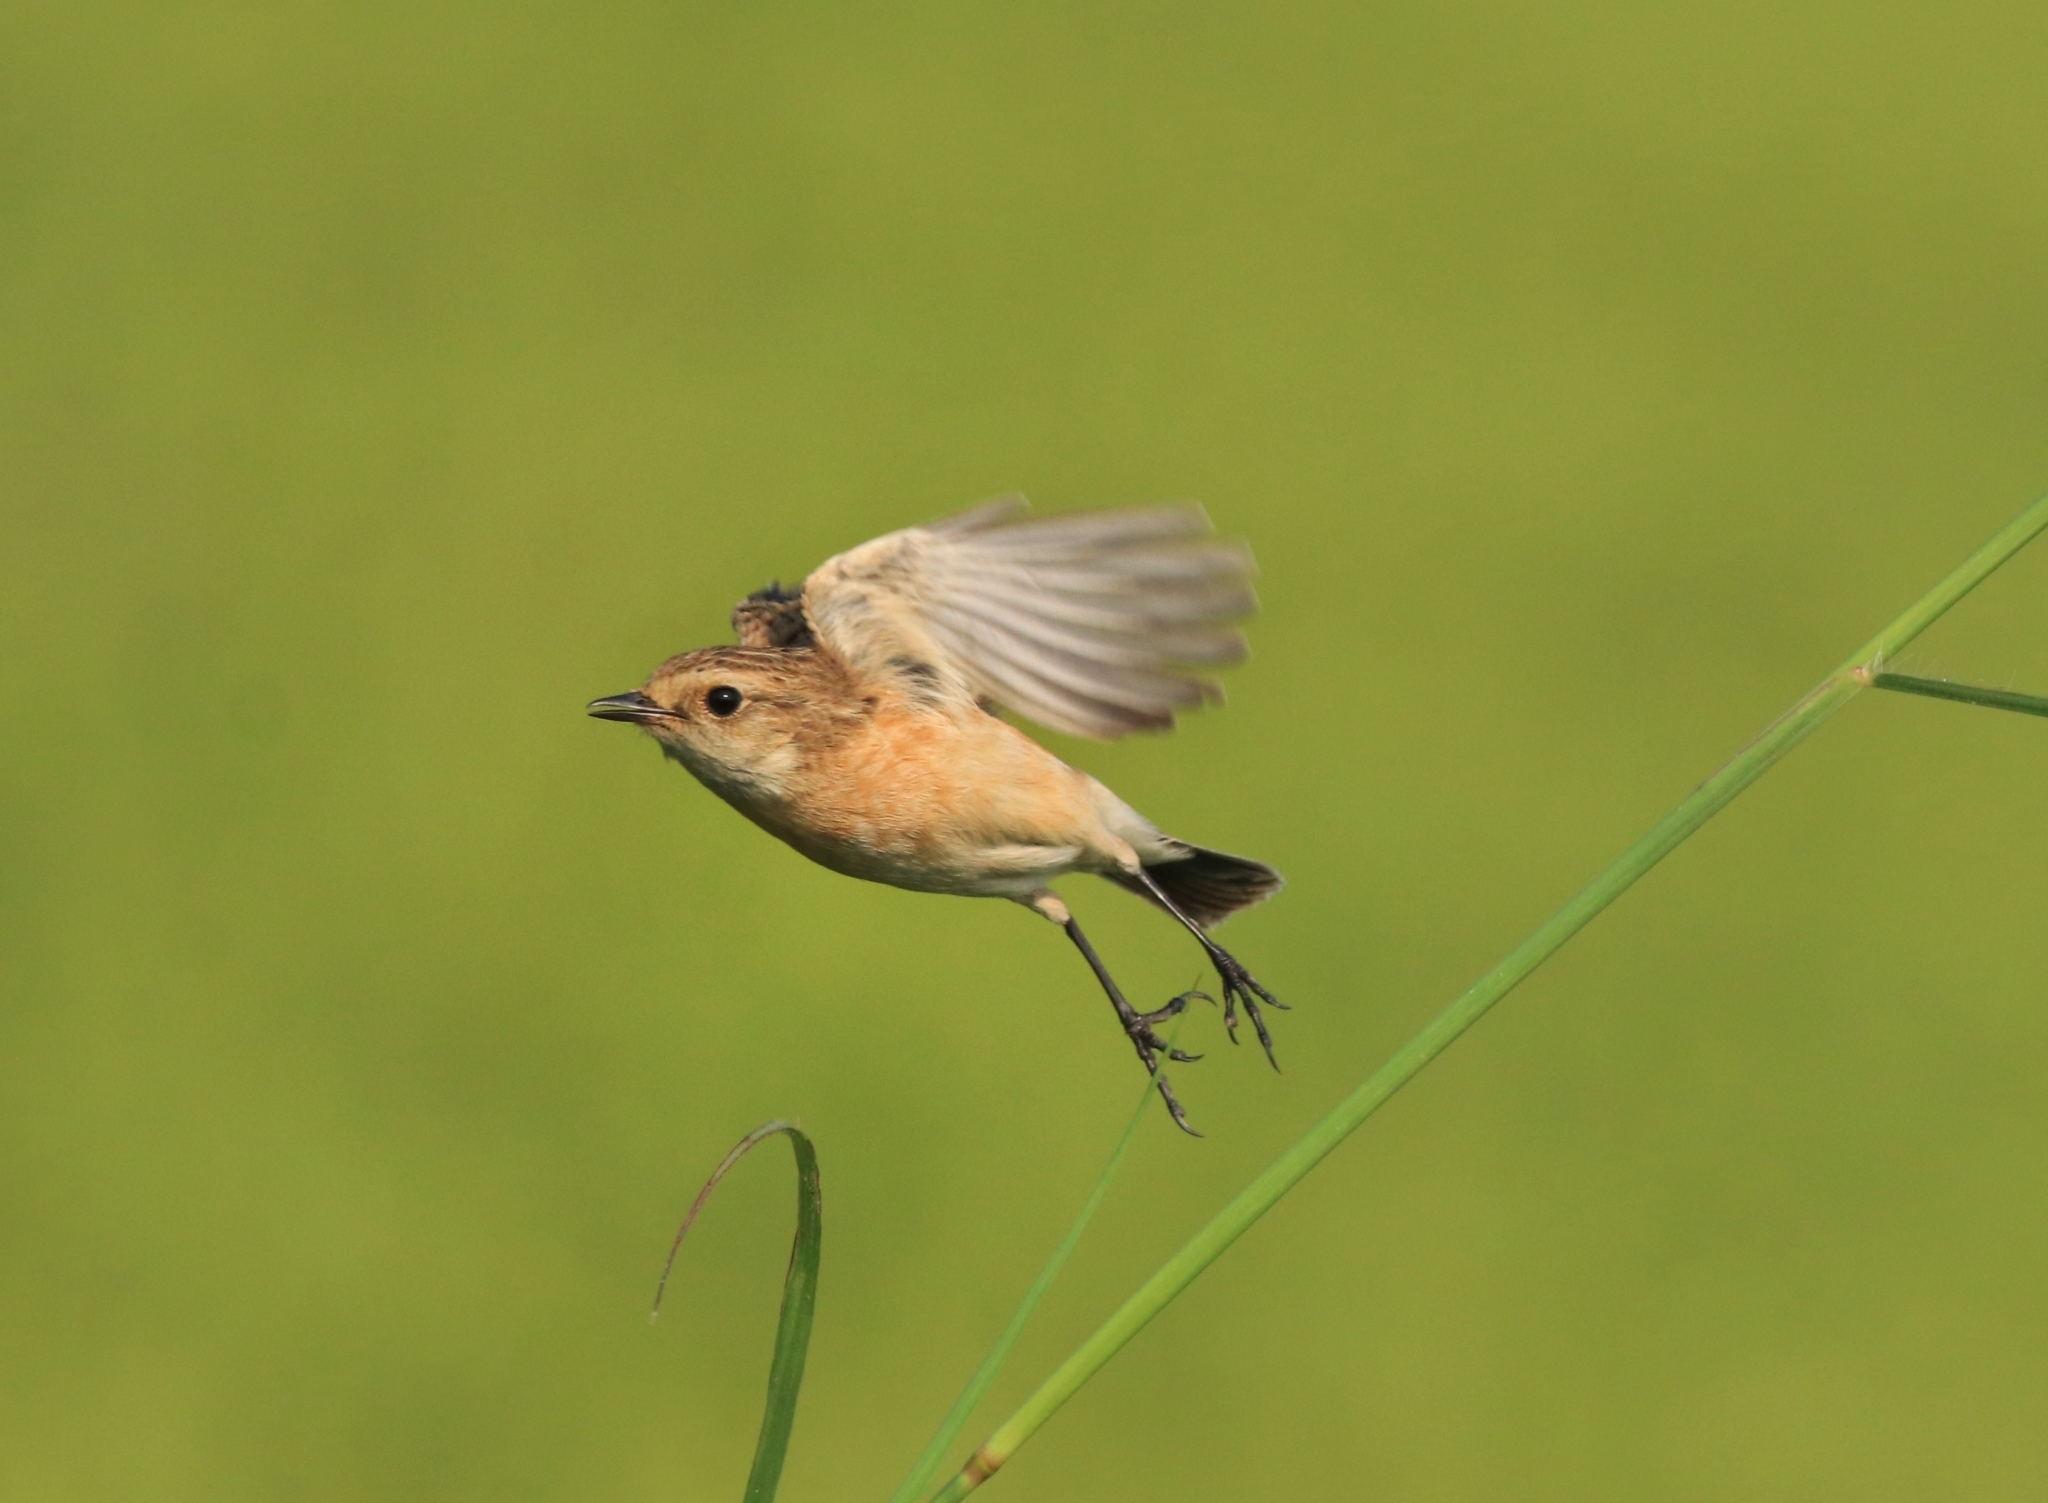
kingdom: Animalia
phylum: Chordata
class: Aves
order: Passeriformes
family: Muscicapidae
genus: Saxicola
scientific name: Saxicola maurus
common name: Siberian stonechat
